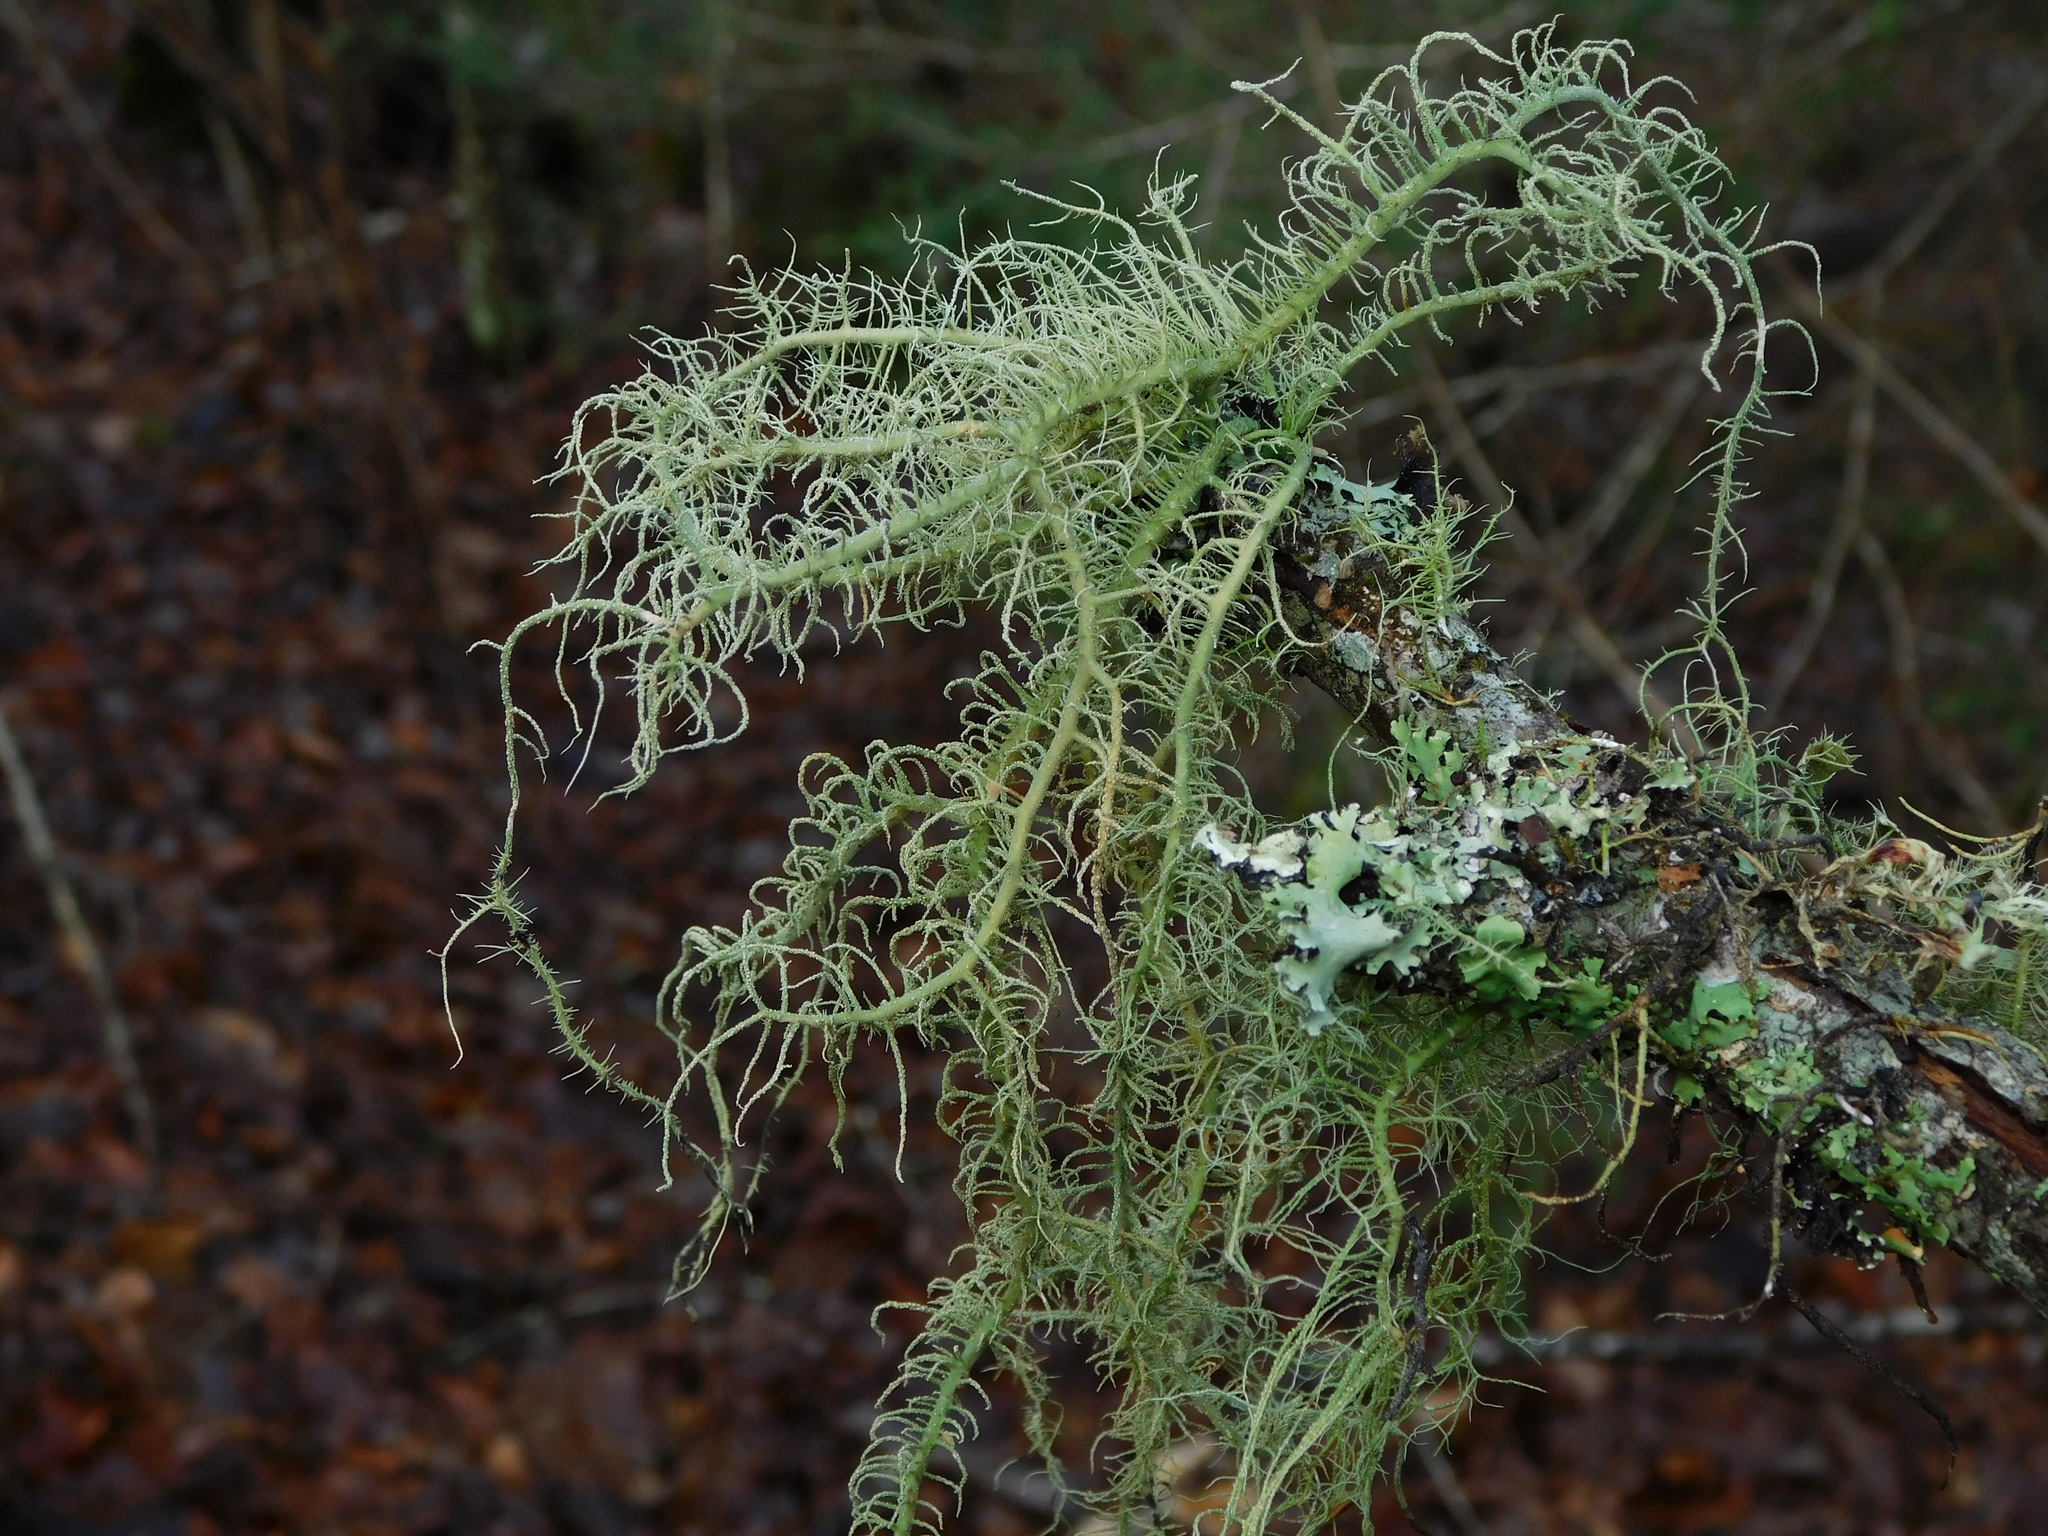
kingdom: Fungi
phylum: Ascomycota
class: Lecanoromycetes
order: Lecanorales
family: Parmeliaceae
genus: Usnea
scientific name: Usnea subscabrosa
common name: Beard lichen
